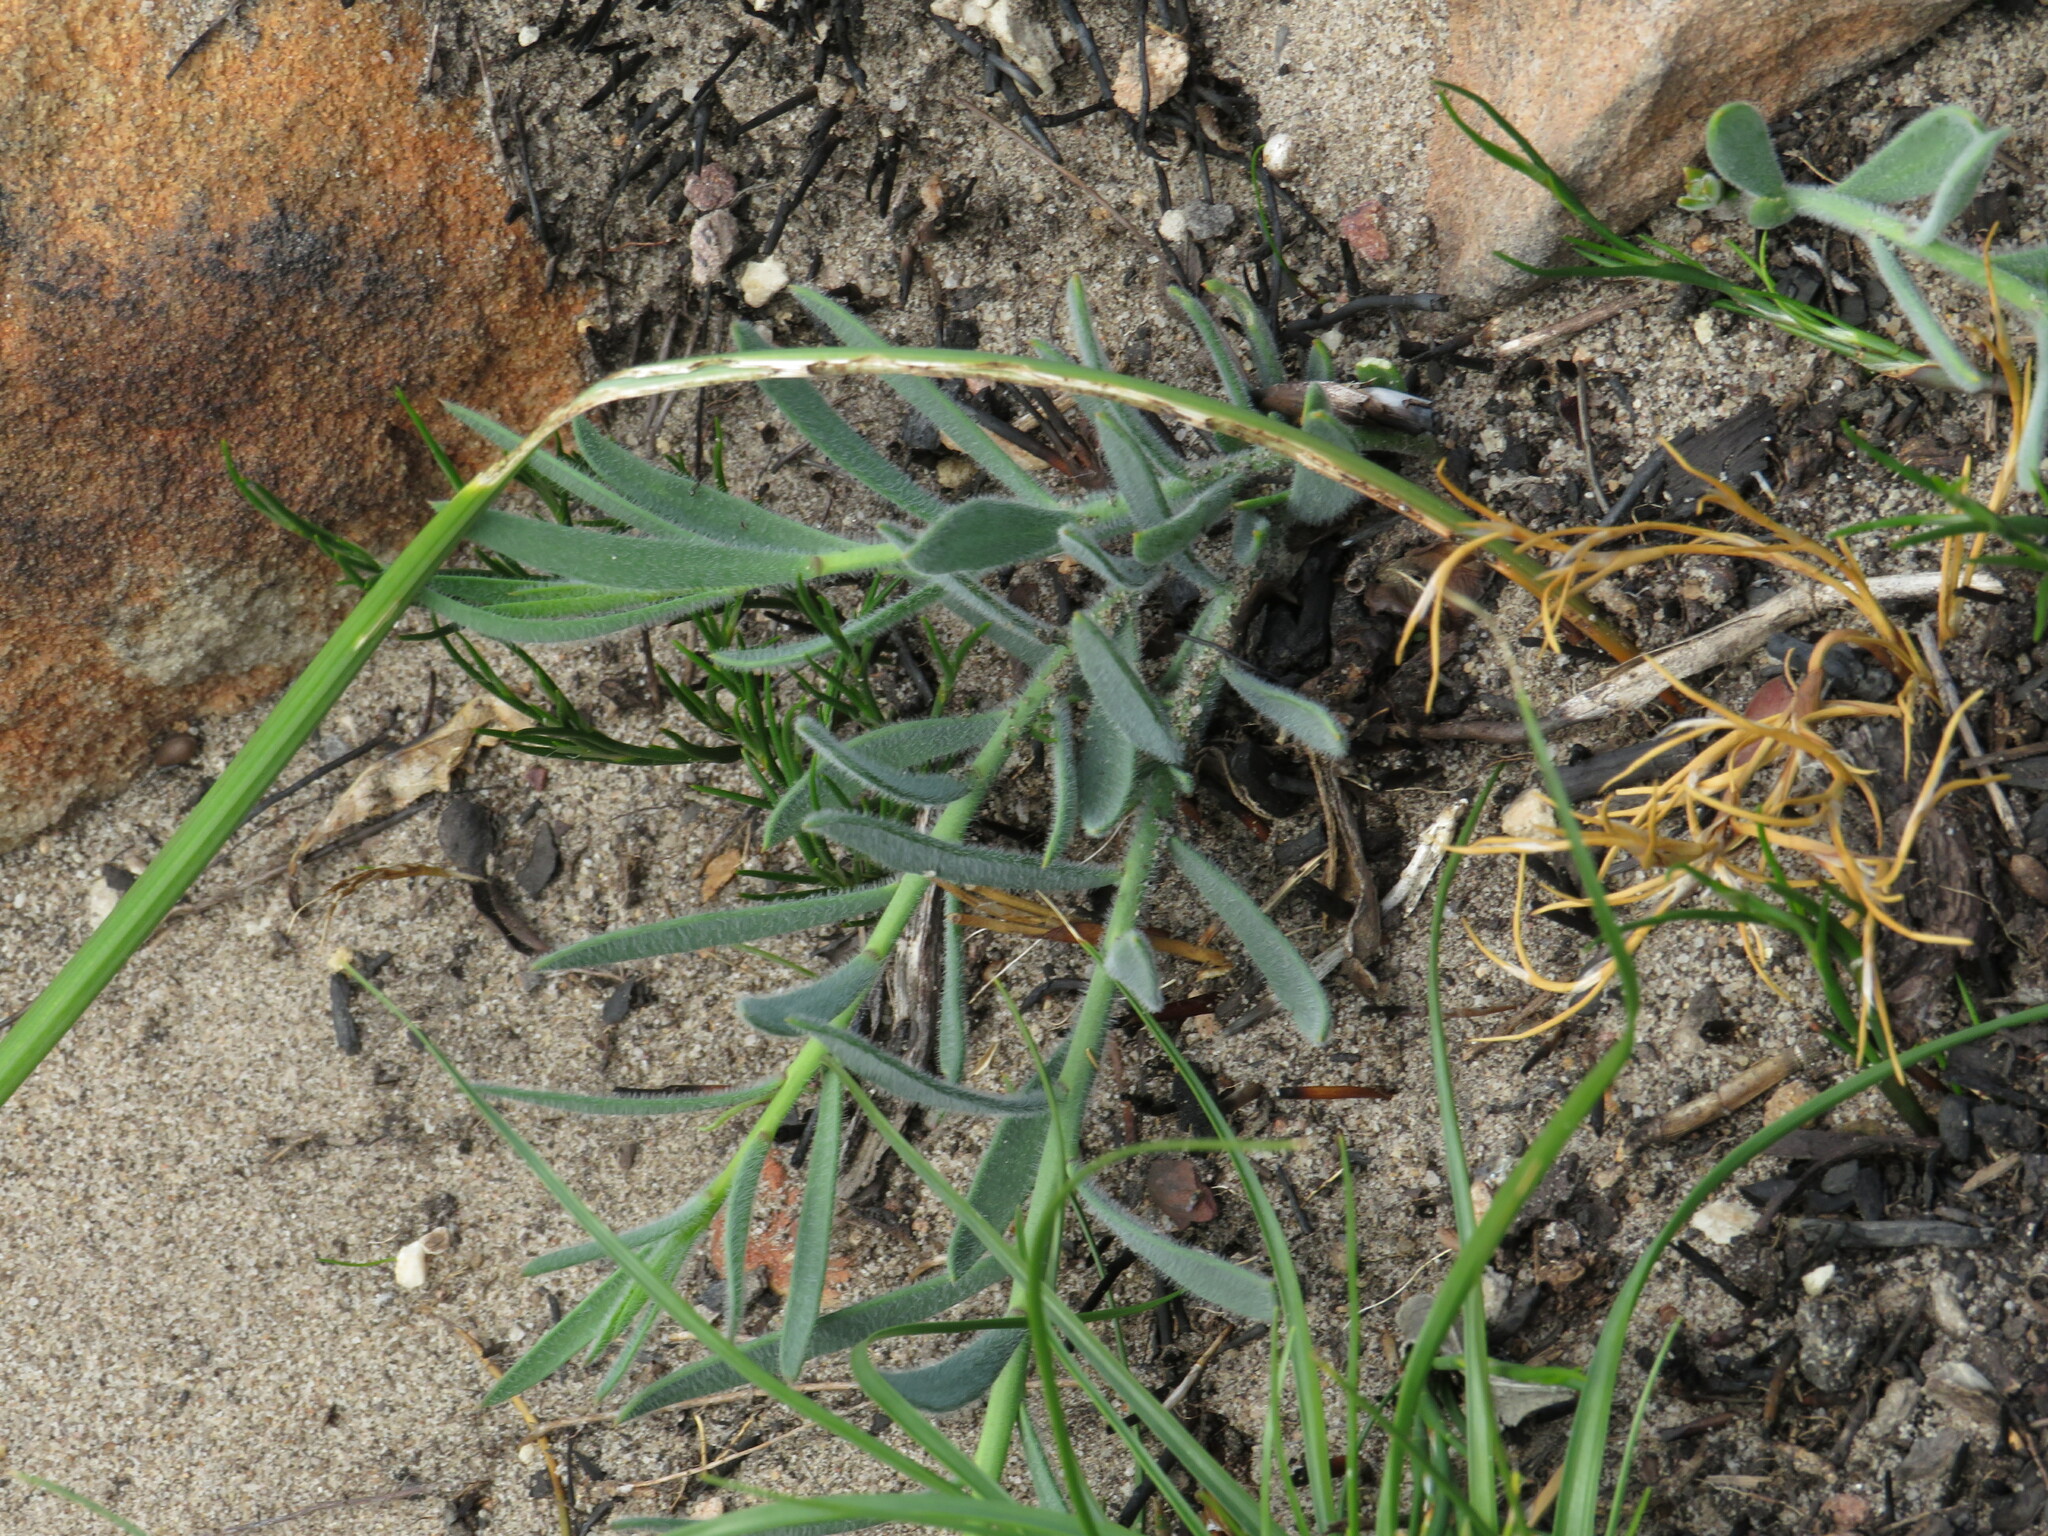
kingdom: Plantae
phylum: Tracheophyta
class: Magnoliopsida
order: Brassicales
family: Brassicaceae
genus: Heliophila
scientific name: Heliophila linearis
